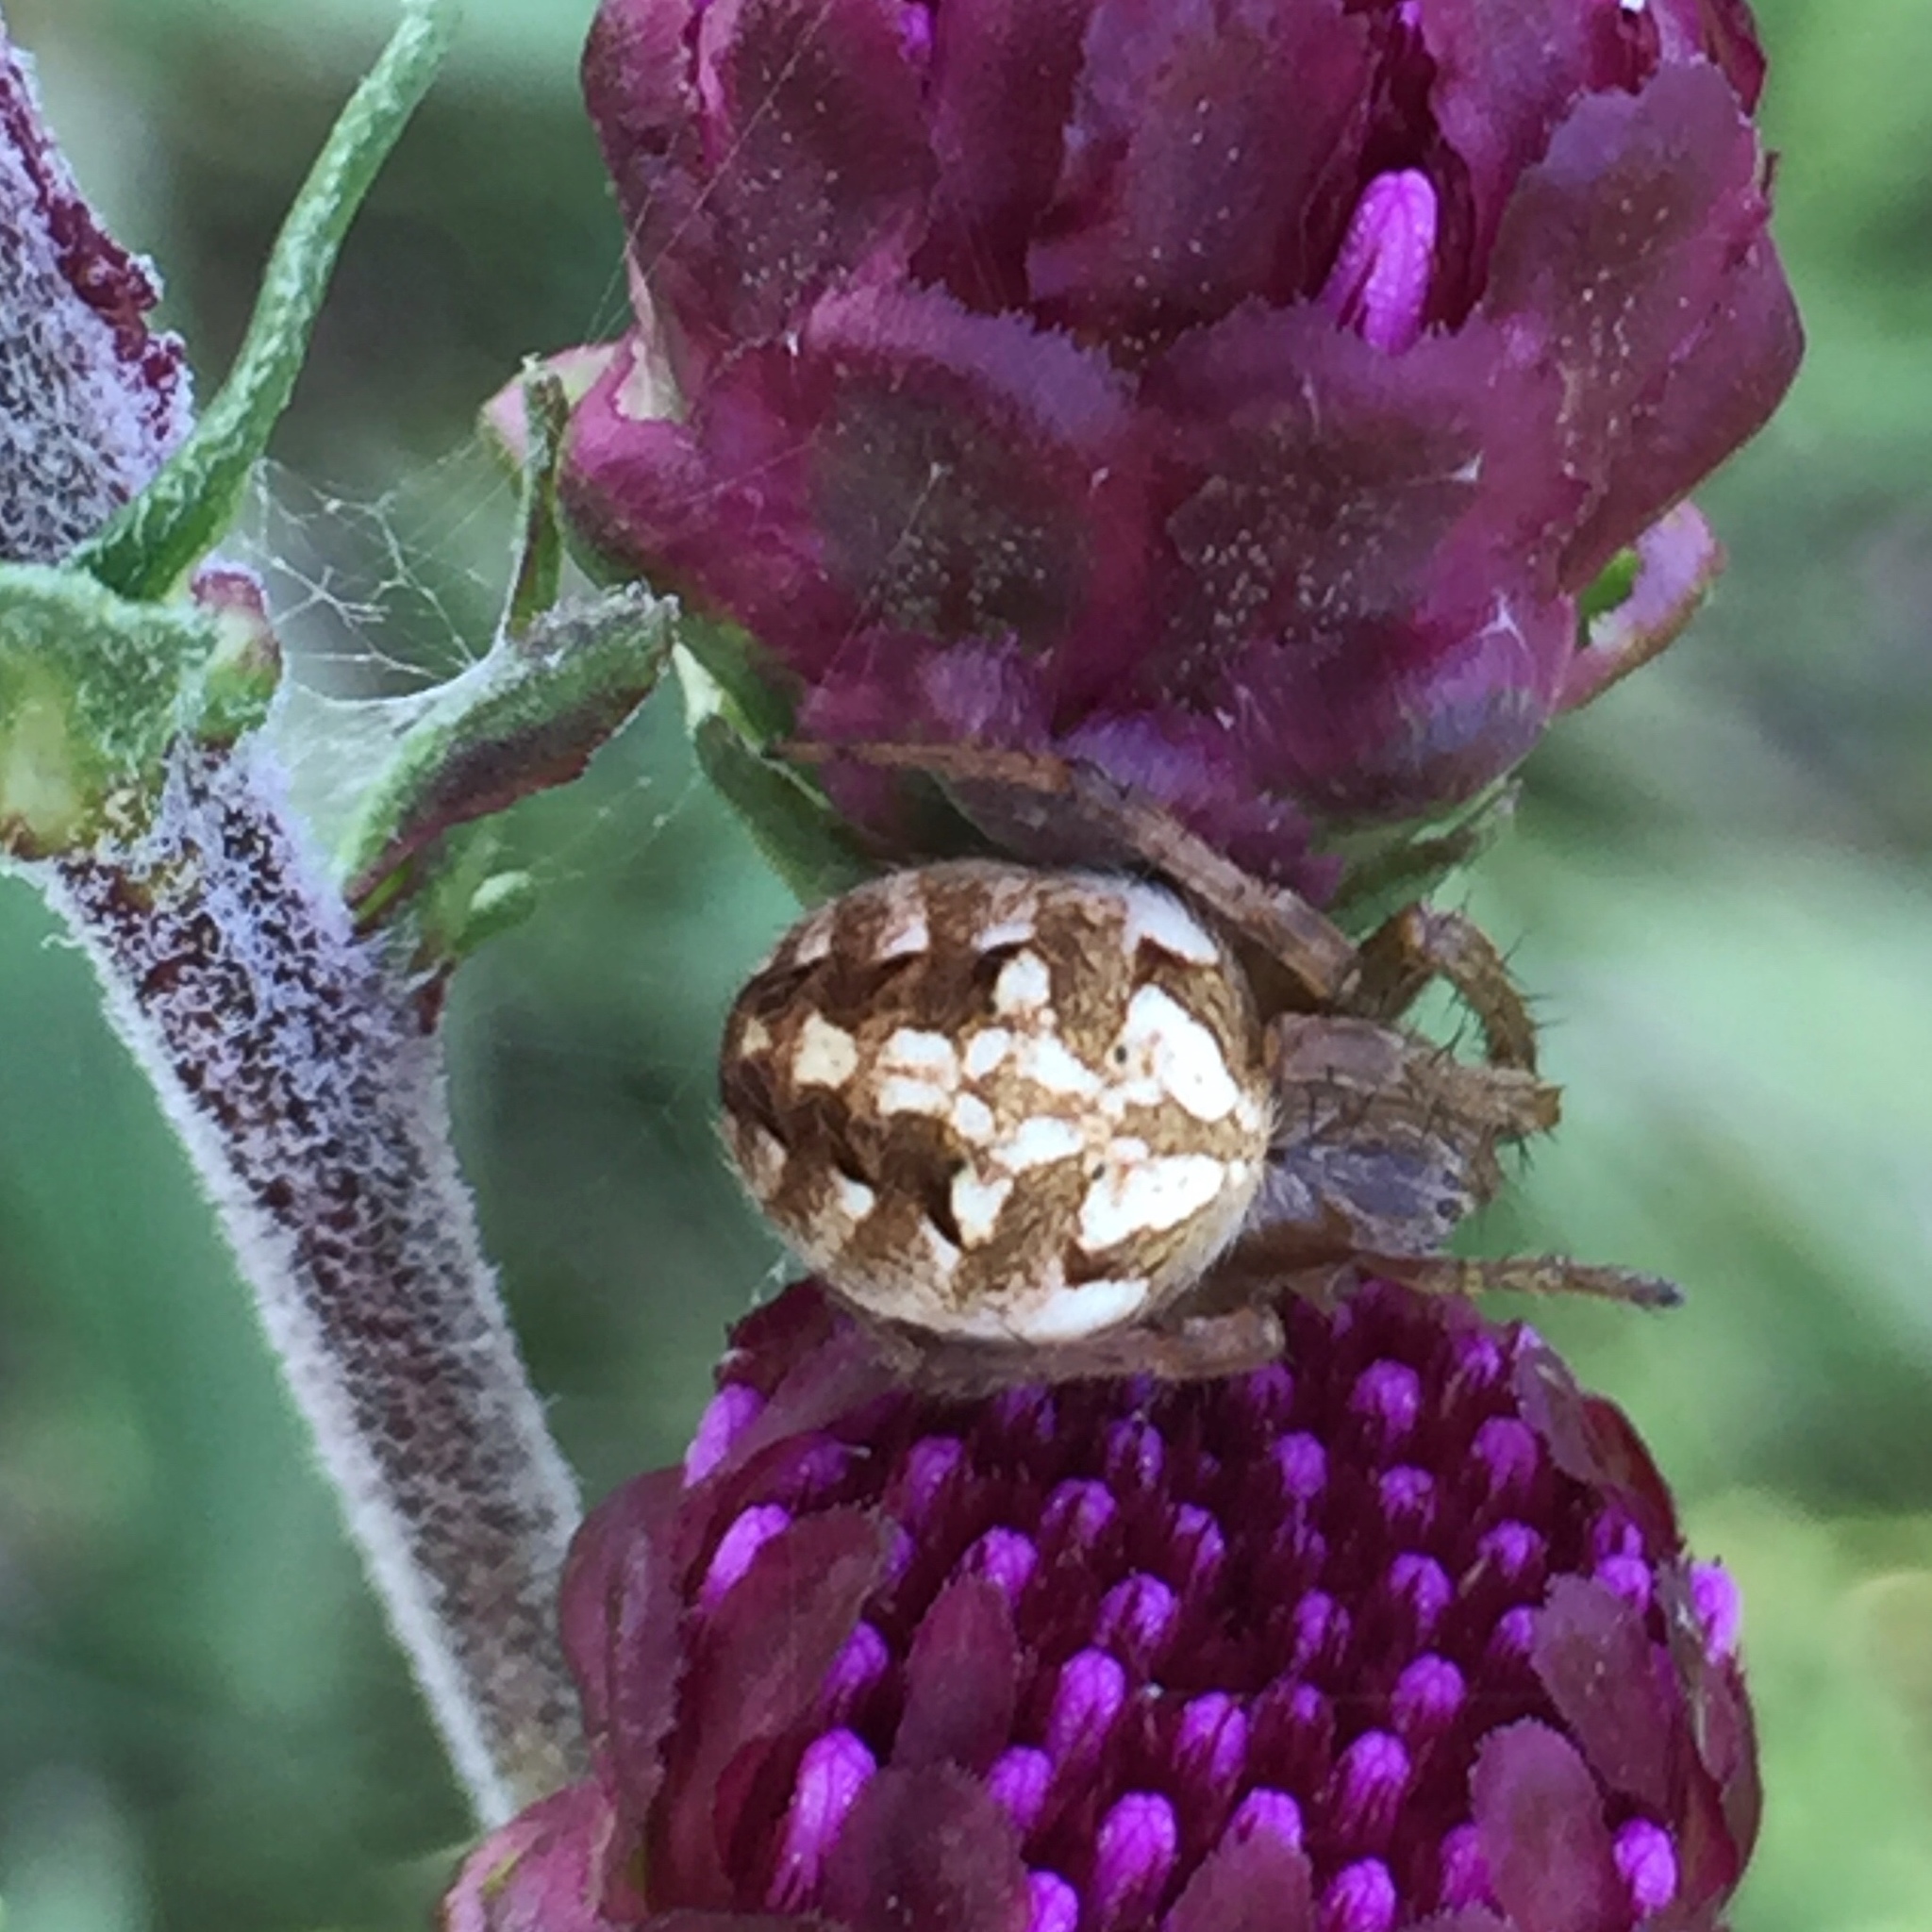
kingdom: Animalia
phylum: Arthropoda
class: Arachnida
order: Araneae
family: Araneidae
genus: Neoscona
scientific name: Neoscona arabesca
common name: Orb weavers
